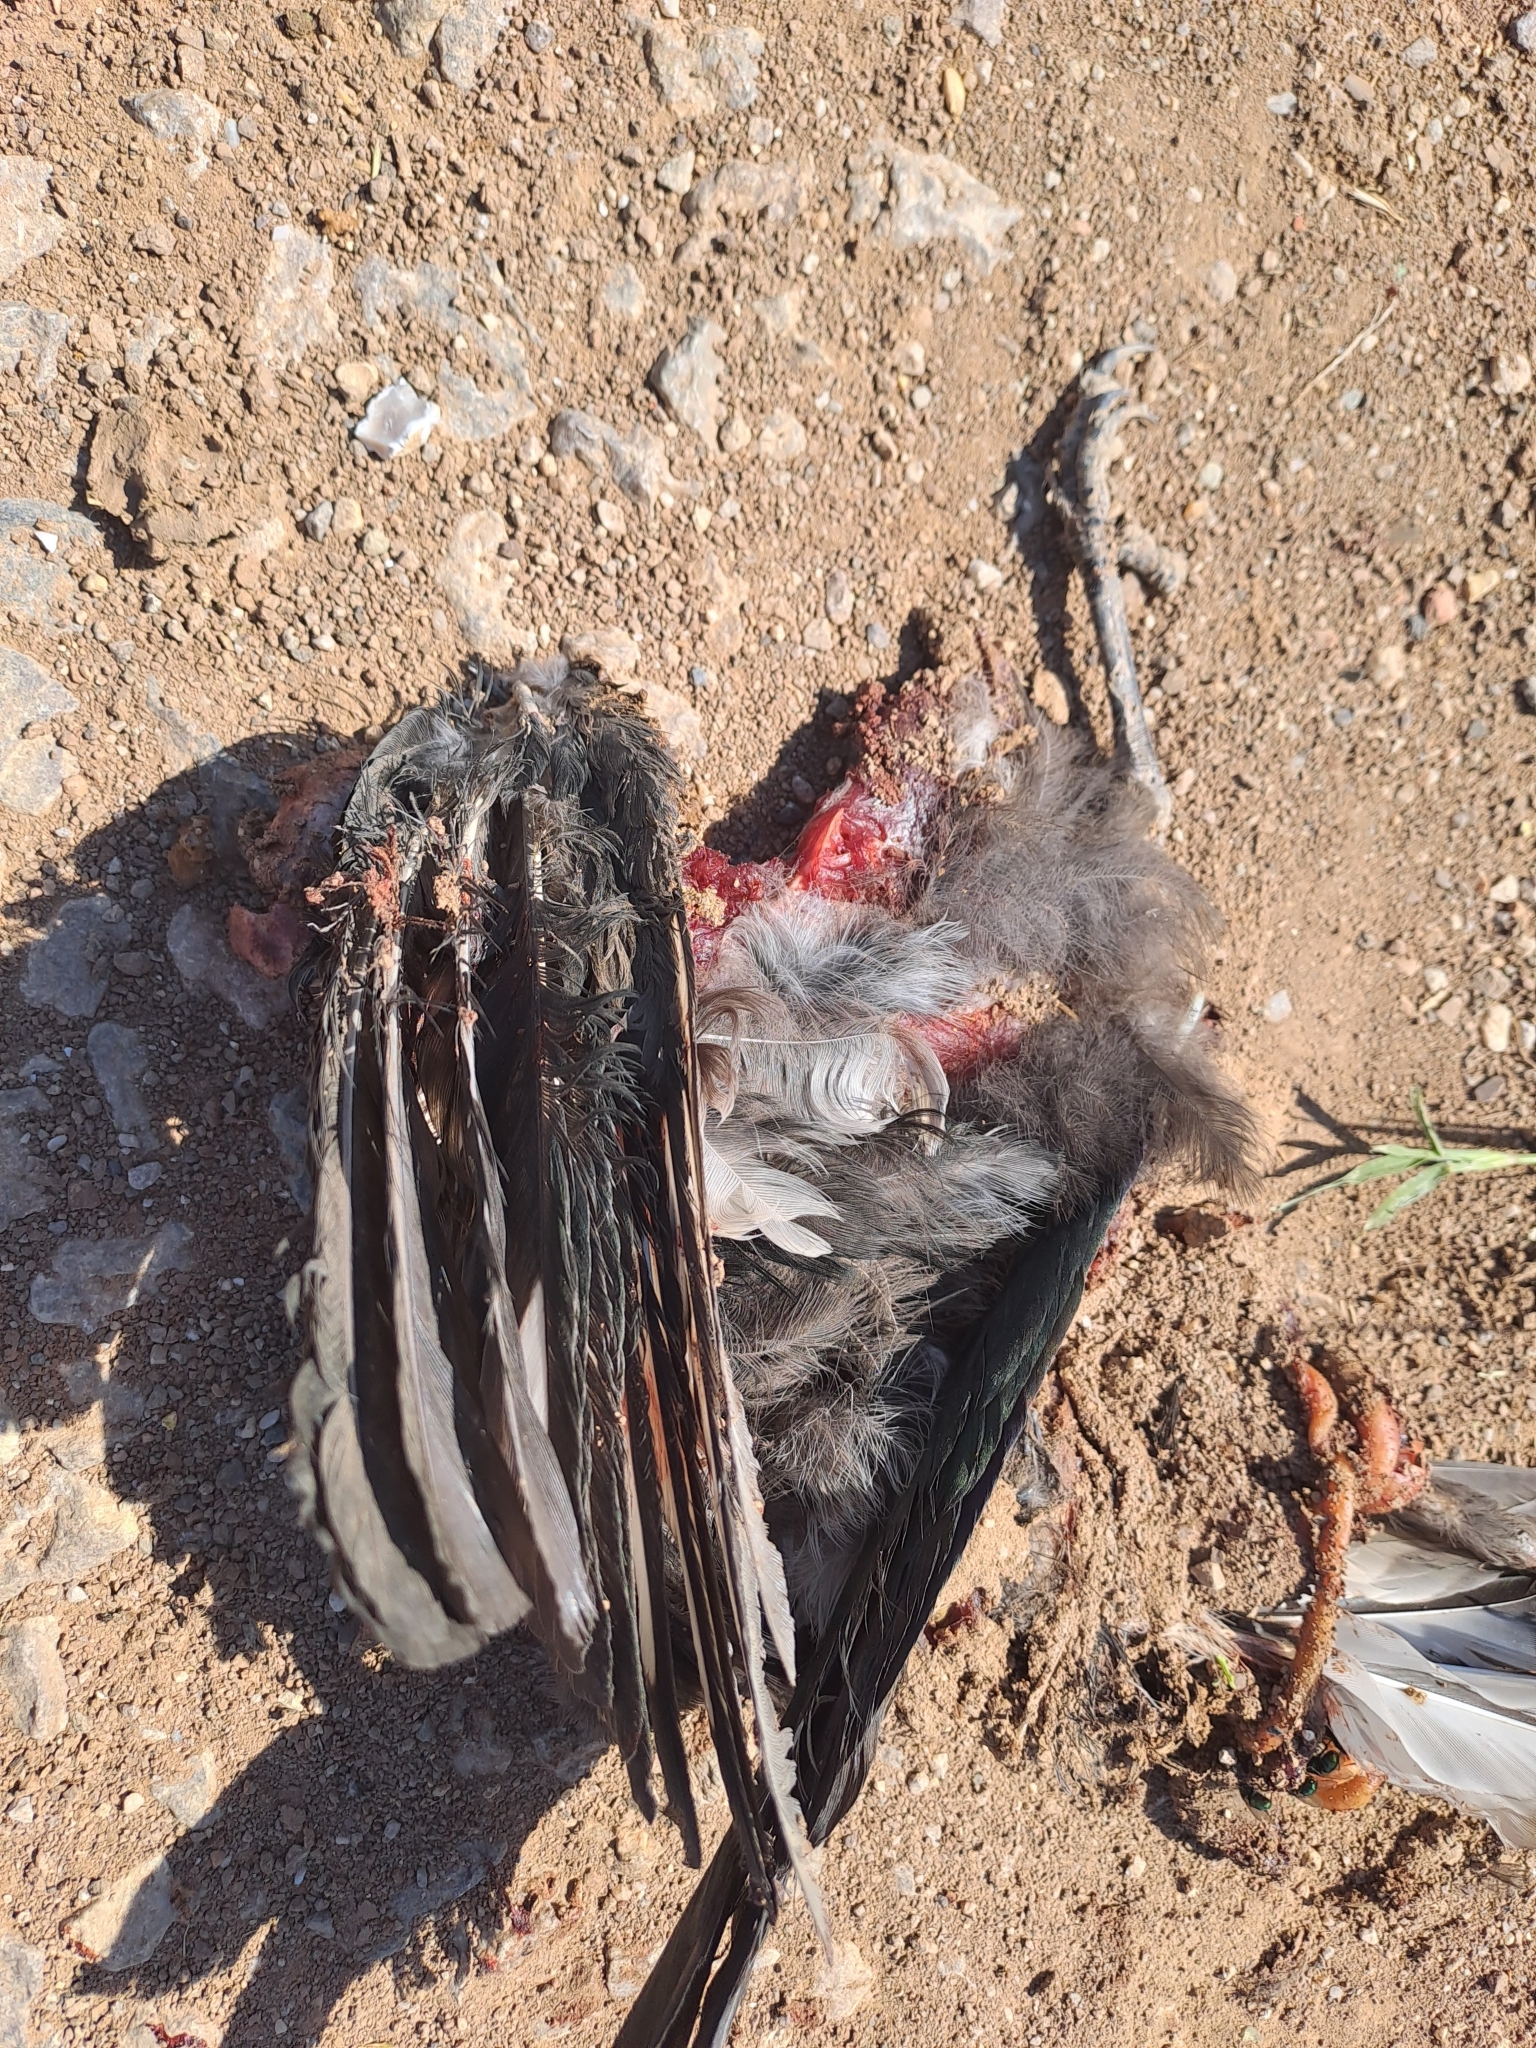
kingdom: Animalia
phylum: Chordata
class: Aves
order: Passeriformes
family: Corvidae
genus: Corvus
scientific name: Corvus cornix
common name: Hooded crow
